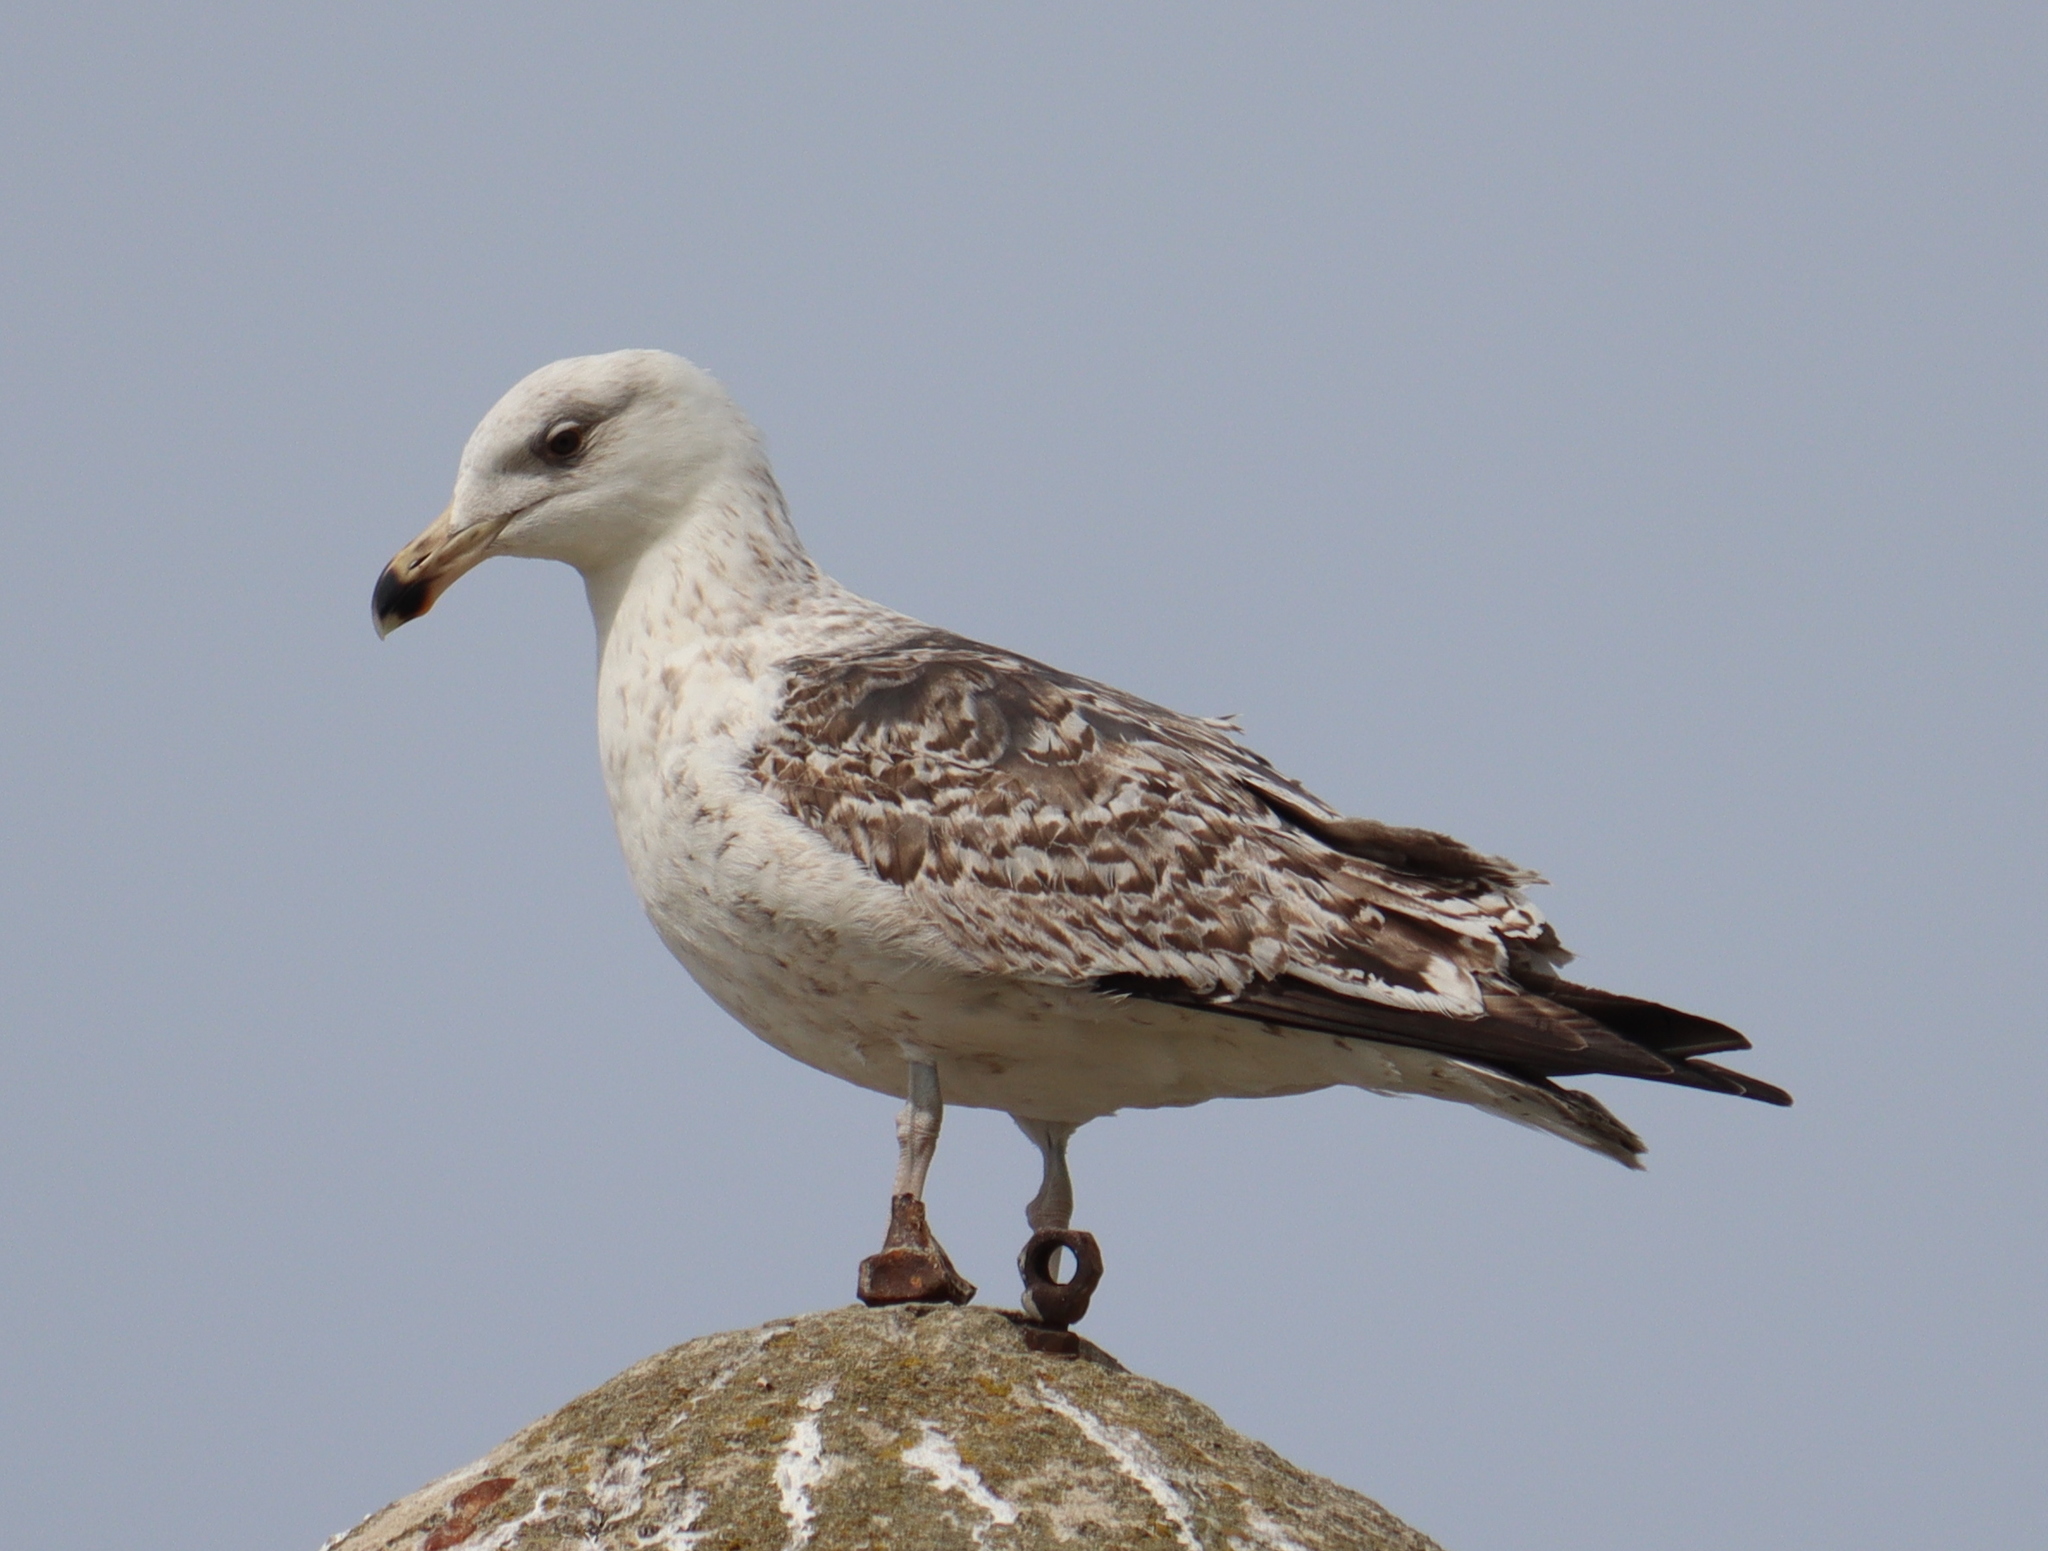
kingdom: Animalia
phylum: Chordata
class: Aves
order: Charadriiformes
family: Laridae
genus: Larus
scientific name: Larus marinus
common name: Great black-backed gull
